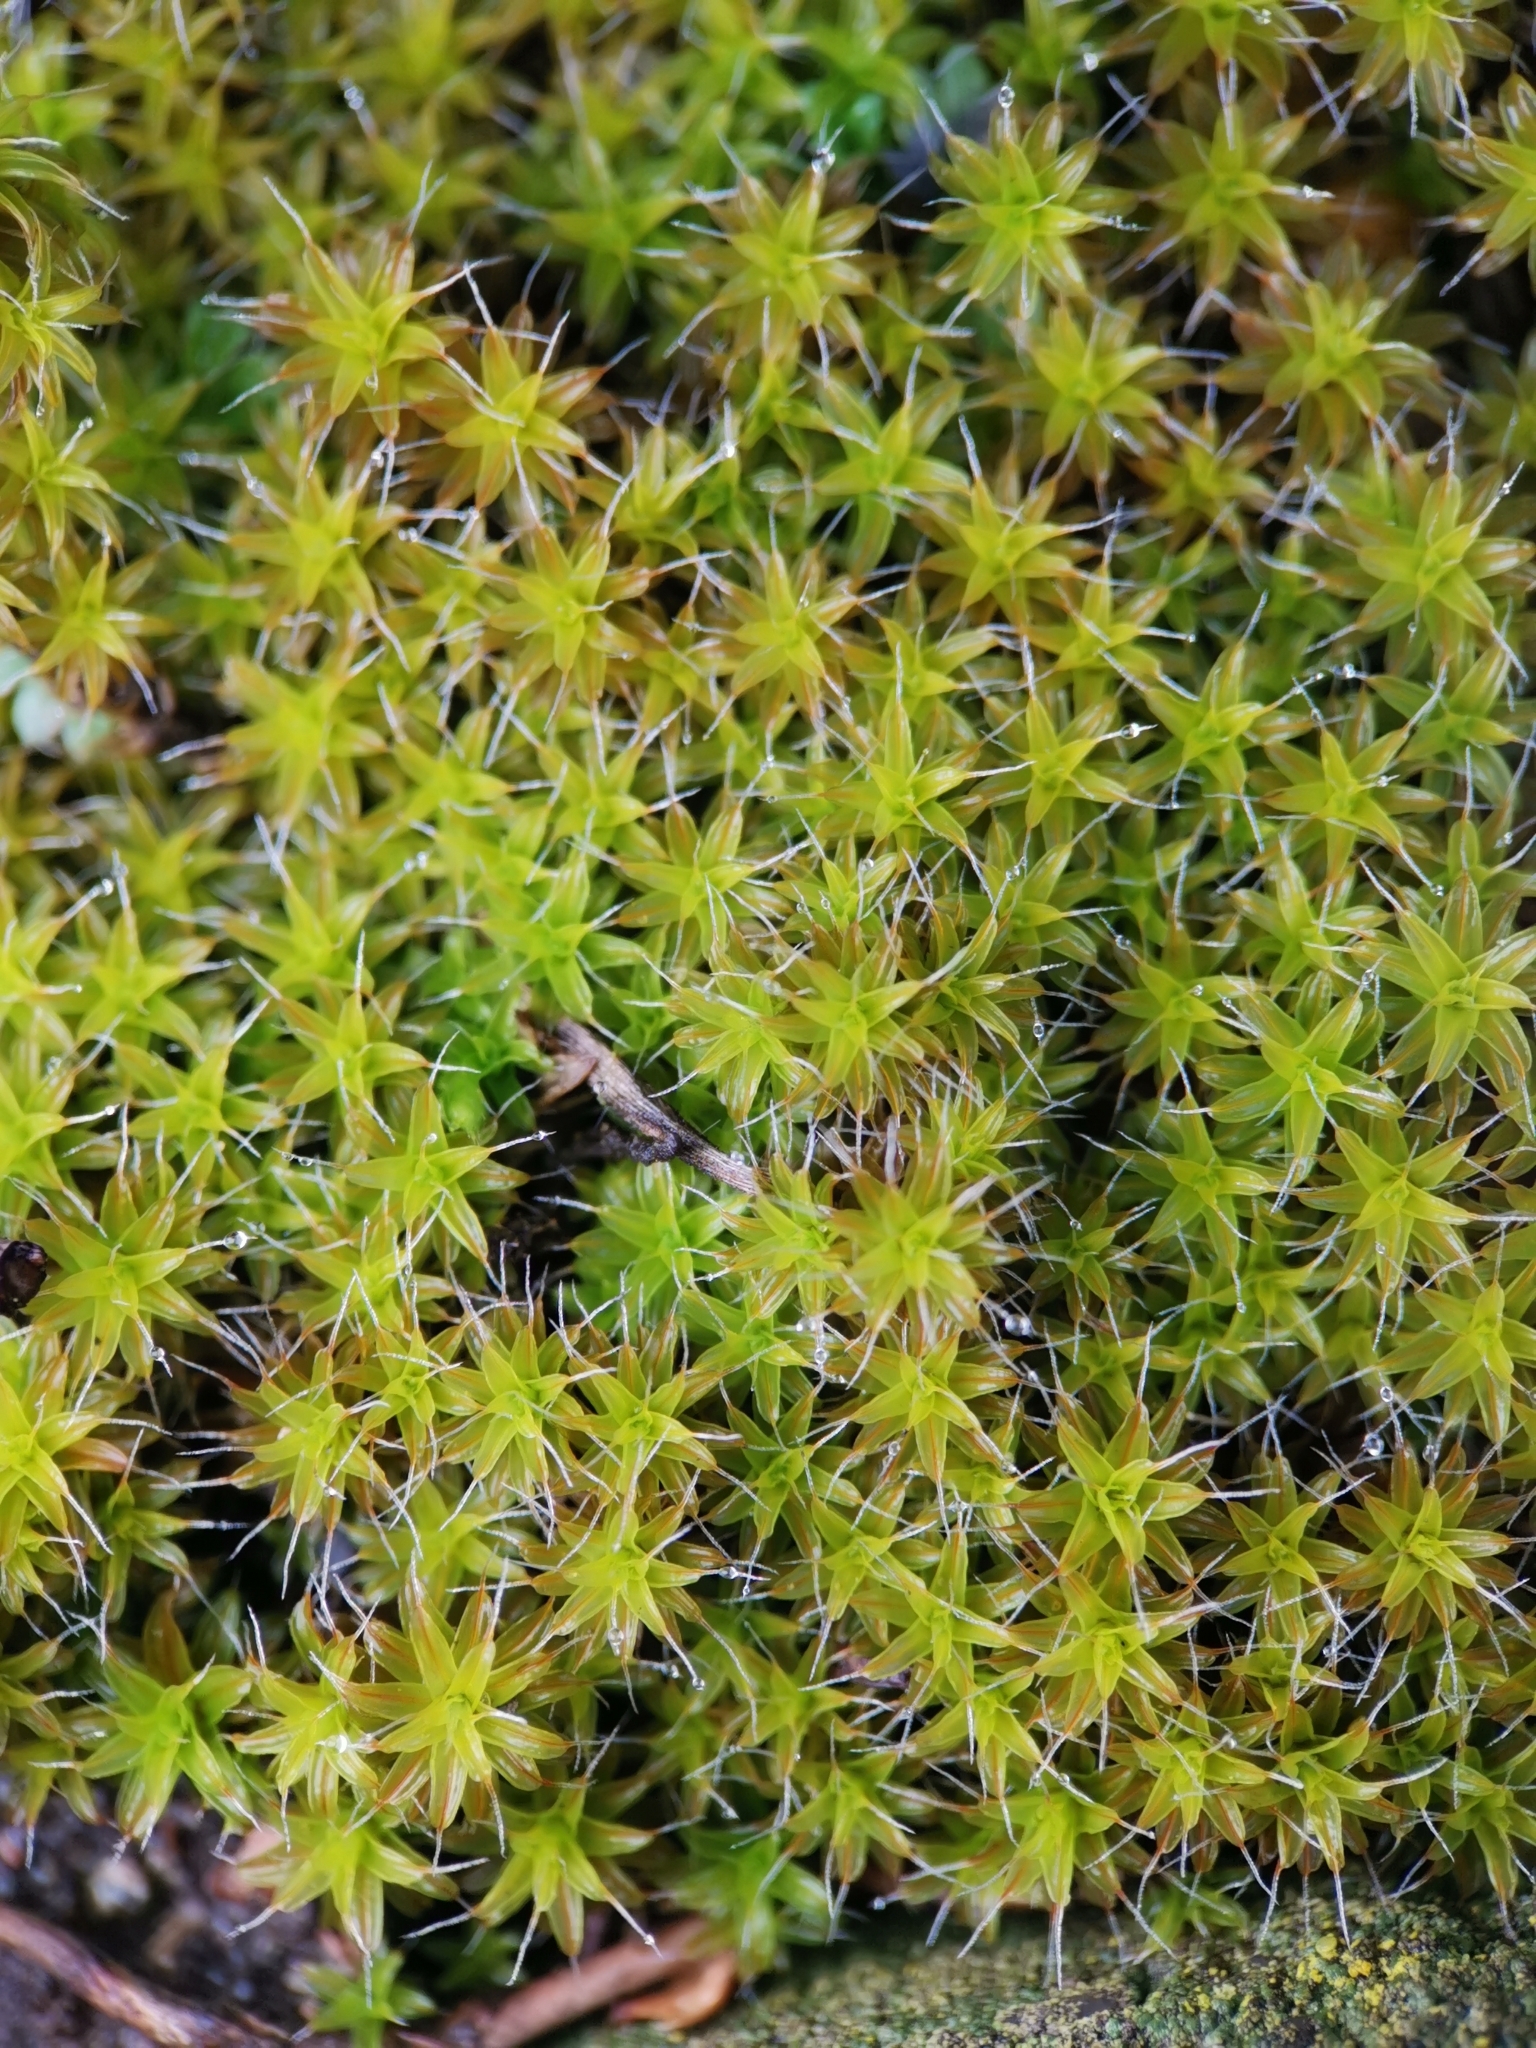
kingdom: Plantae
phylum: Bryophyta
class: Bryopsida
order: Pottiales
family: Pottiaceae
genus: Syntrichia
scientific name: Syntrichia ruralis
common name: Sidewalk screw moss
